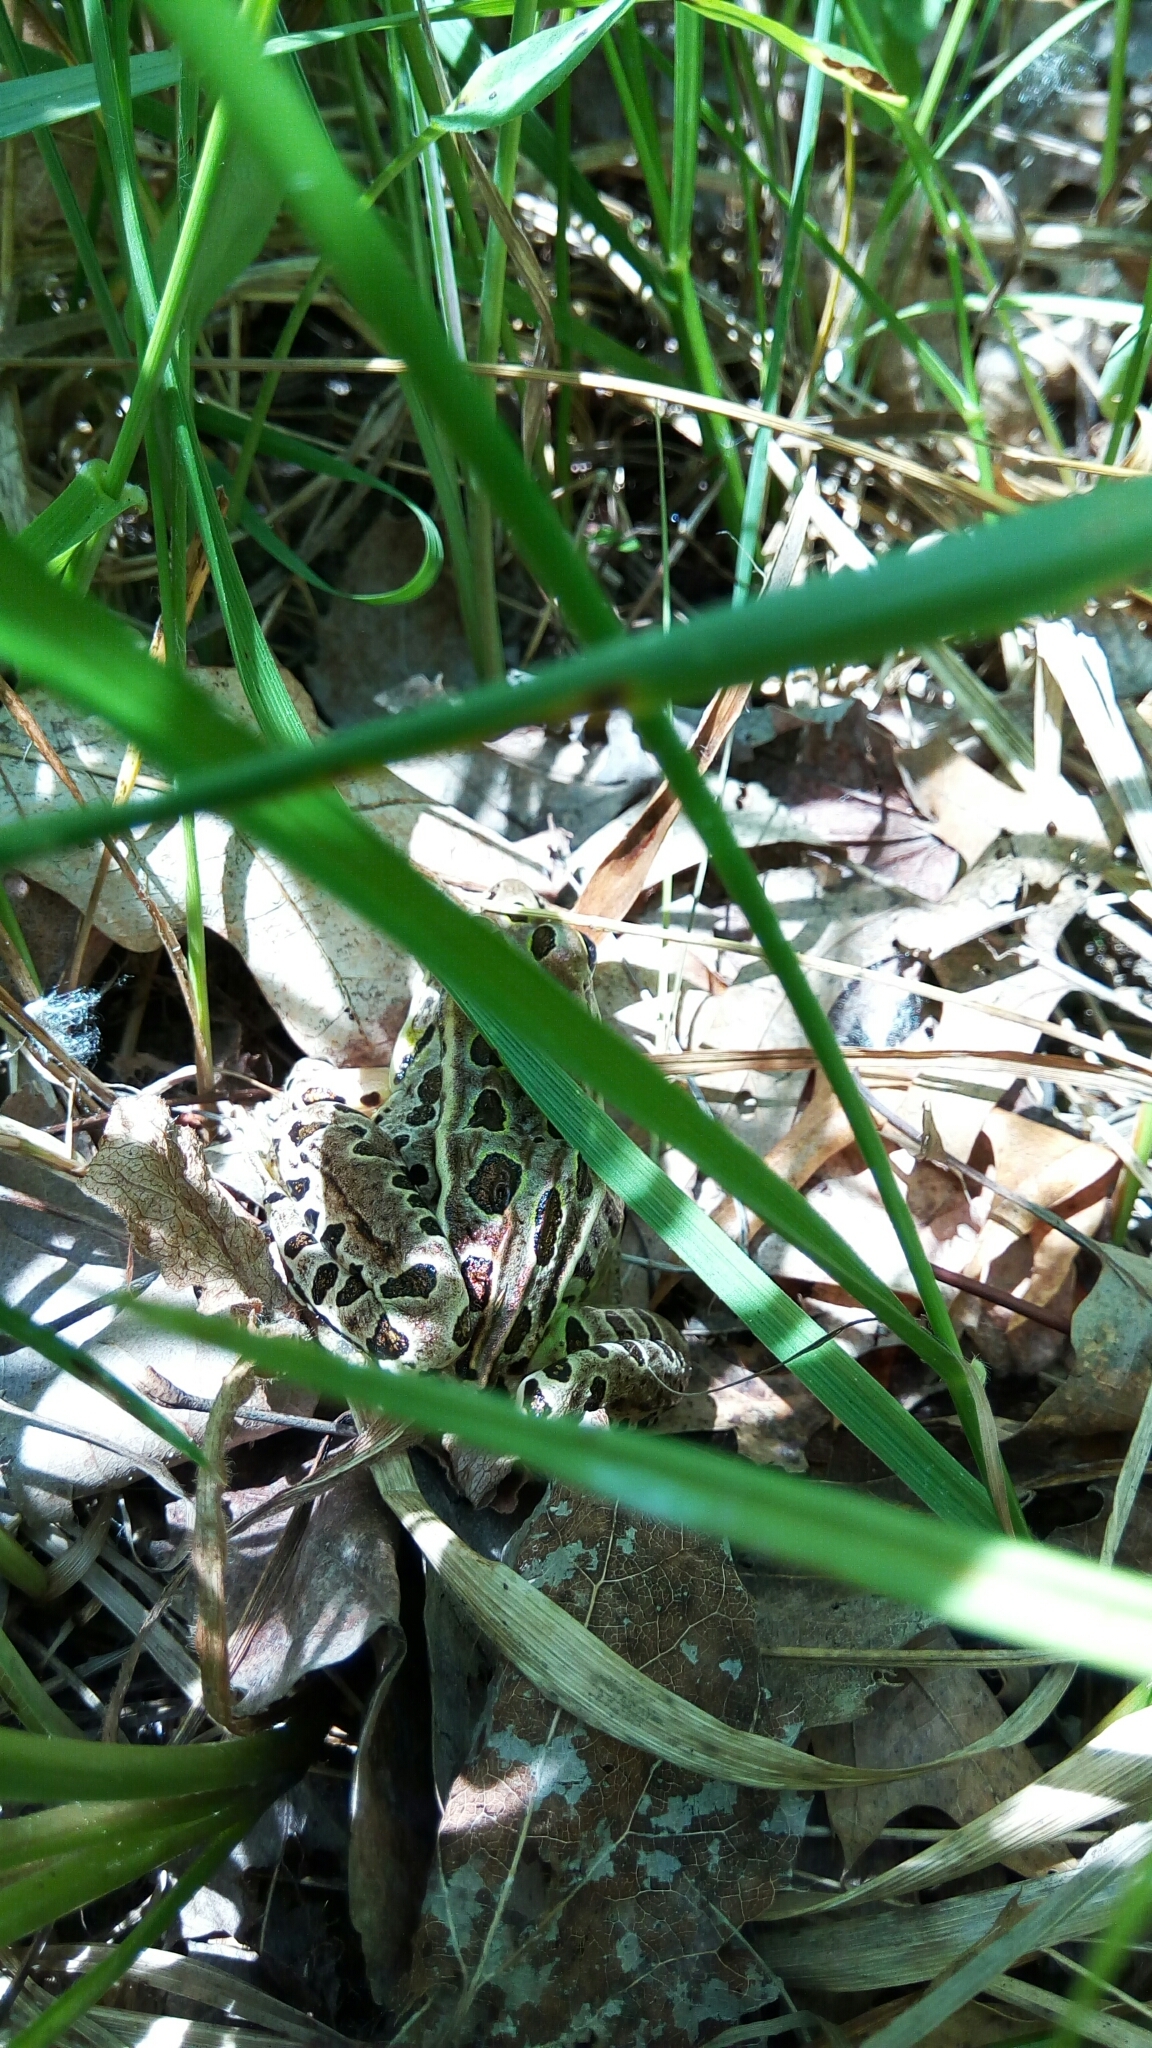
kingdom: Animalia
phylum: Chordata
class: Amphibia
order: Anura
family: Ranidae
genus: Lithobates
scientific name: Lithobates pipiens
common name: Northern leopard frog
